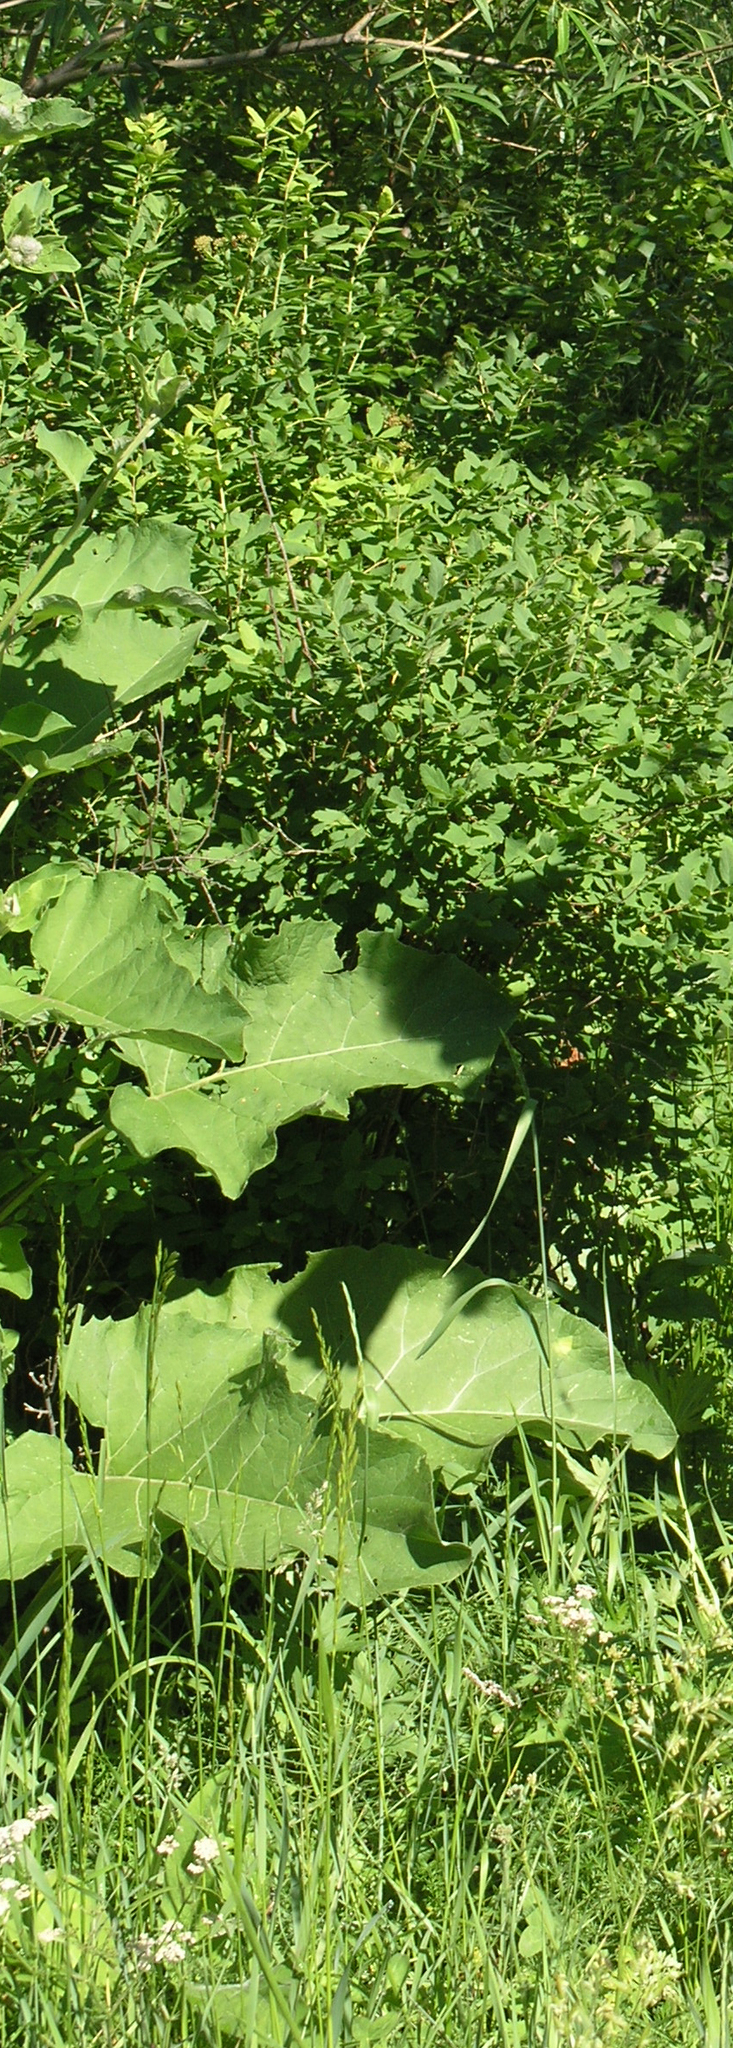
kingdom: Plantae
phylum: Tracheophyta
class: Magnoliopsida
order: Asterales
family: Asteraceae
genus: Arctium
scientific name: Arctium tomentosum
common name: Woolly burdock
